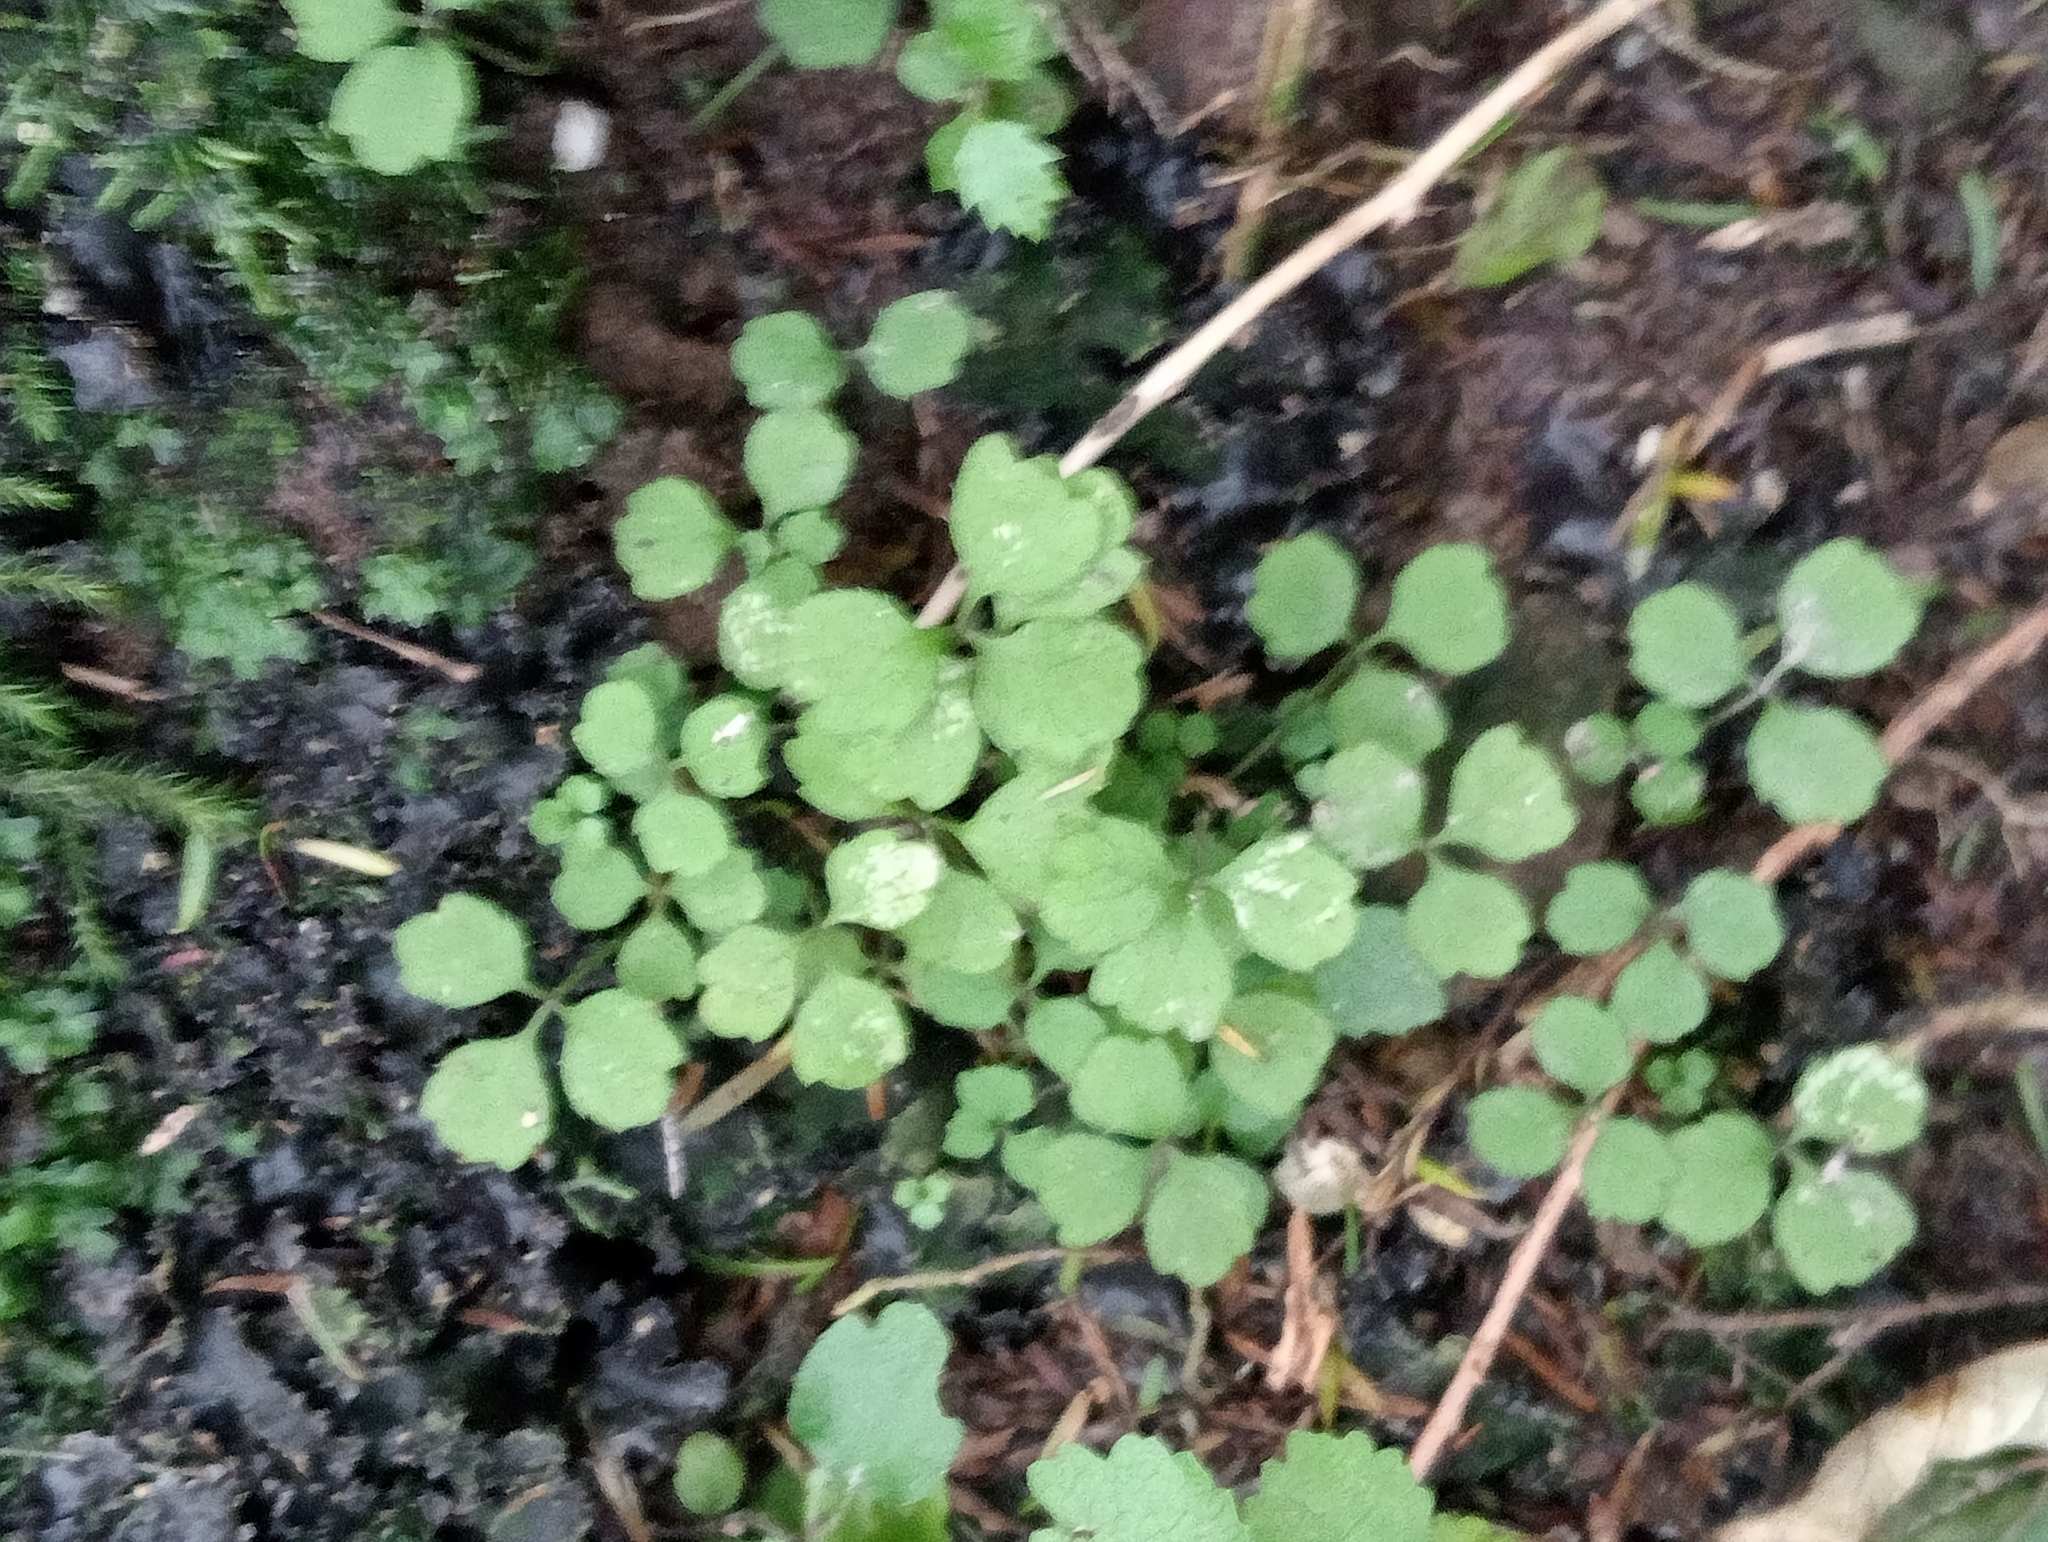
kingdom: Plantae
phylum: Tracheophyta
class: Magnoliopsida
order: Apiales
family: Apiaceae
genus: Azorella
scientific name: Azorella hookeri
